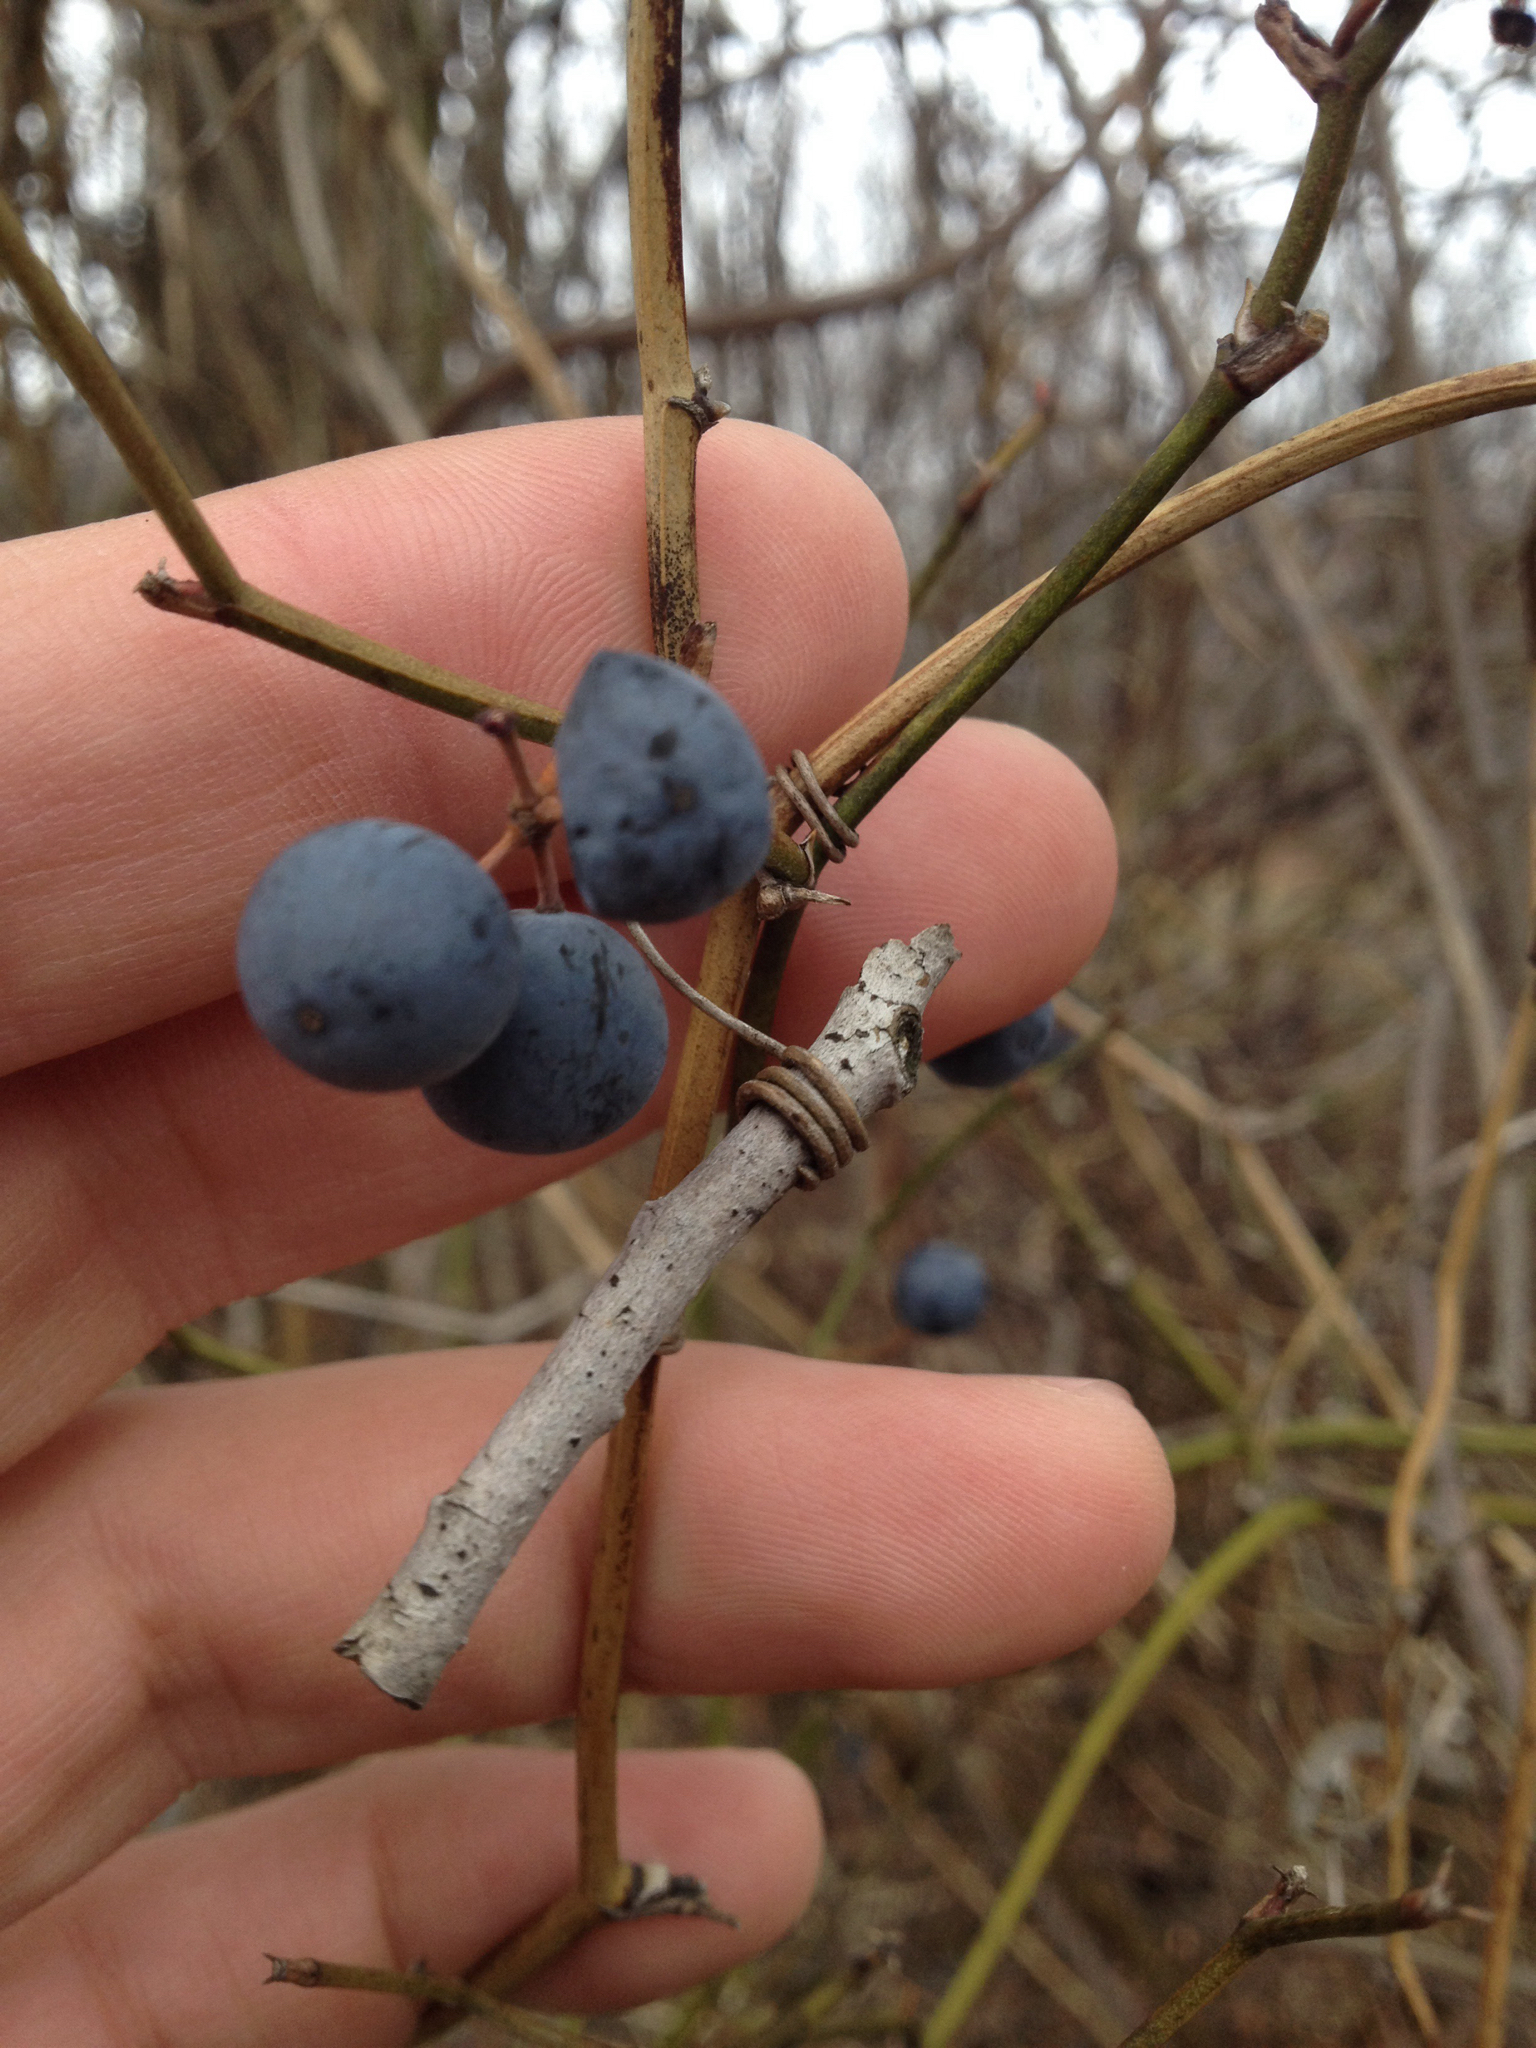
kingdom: Plantae
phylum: Tracheophyta
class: Liliopsida
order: Liliales
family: Smilacaceae
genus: Smilax
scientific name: Smilax rotundifolia
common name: Bullbriar
